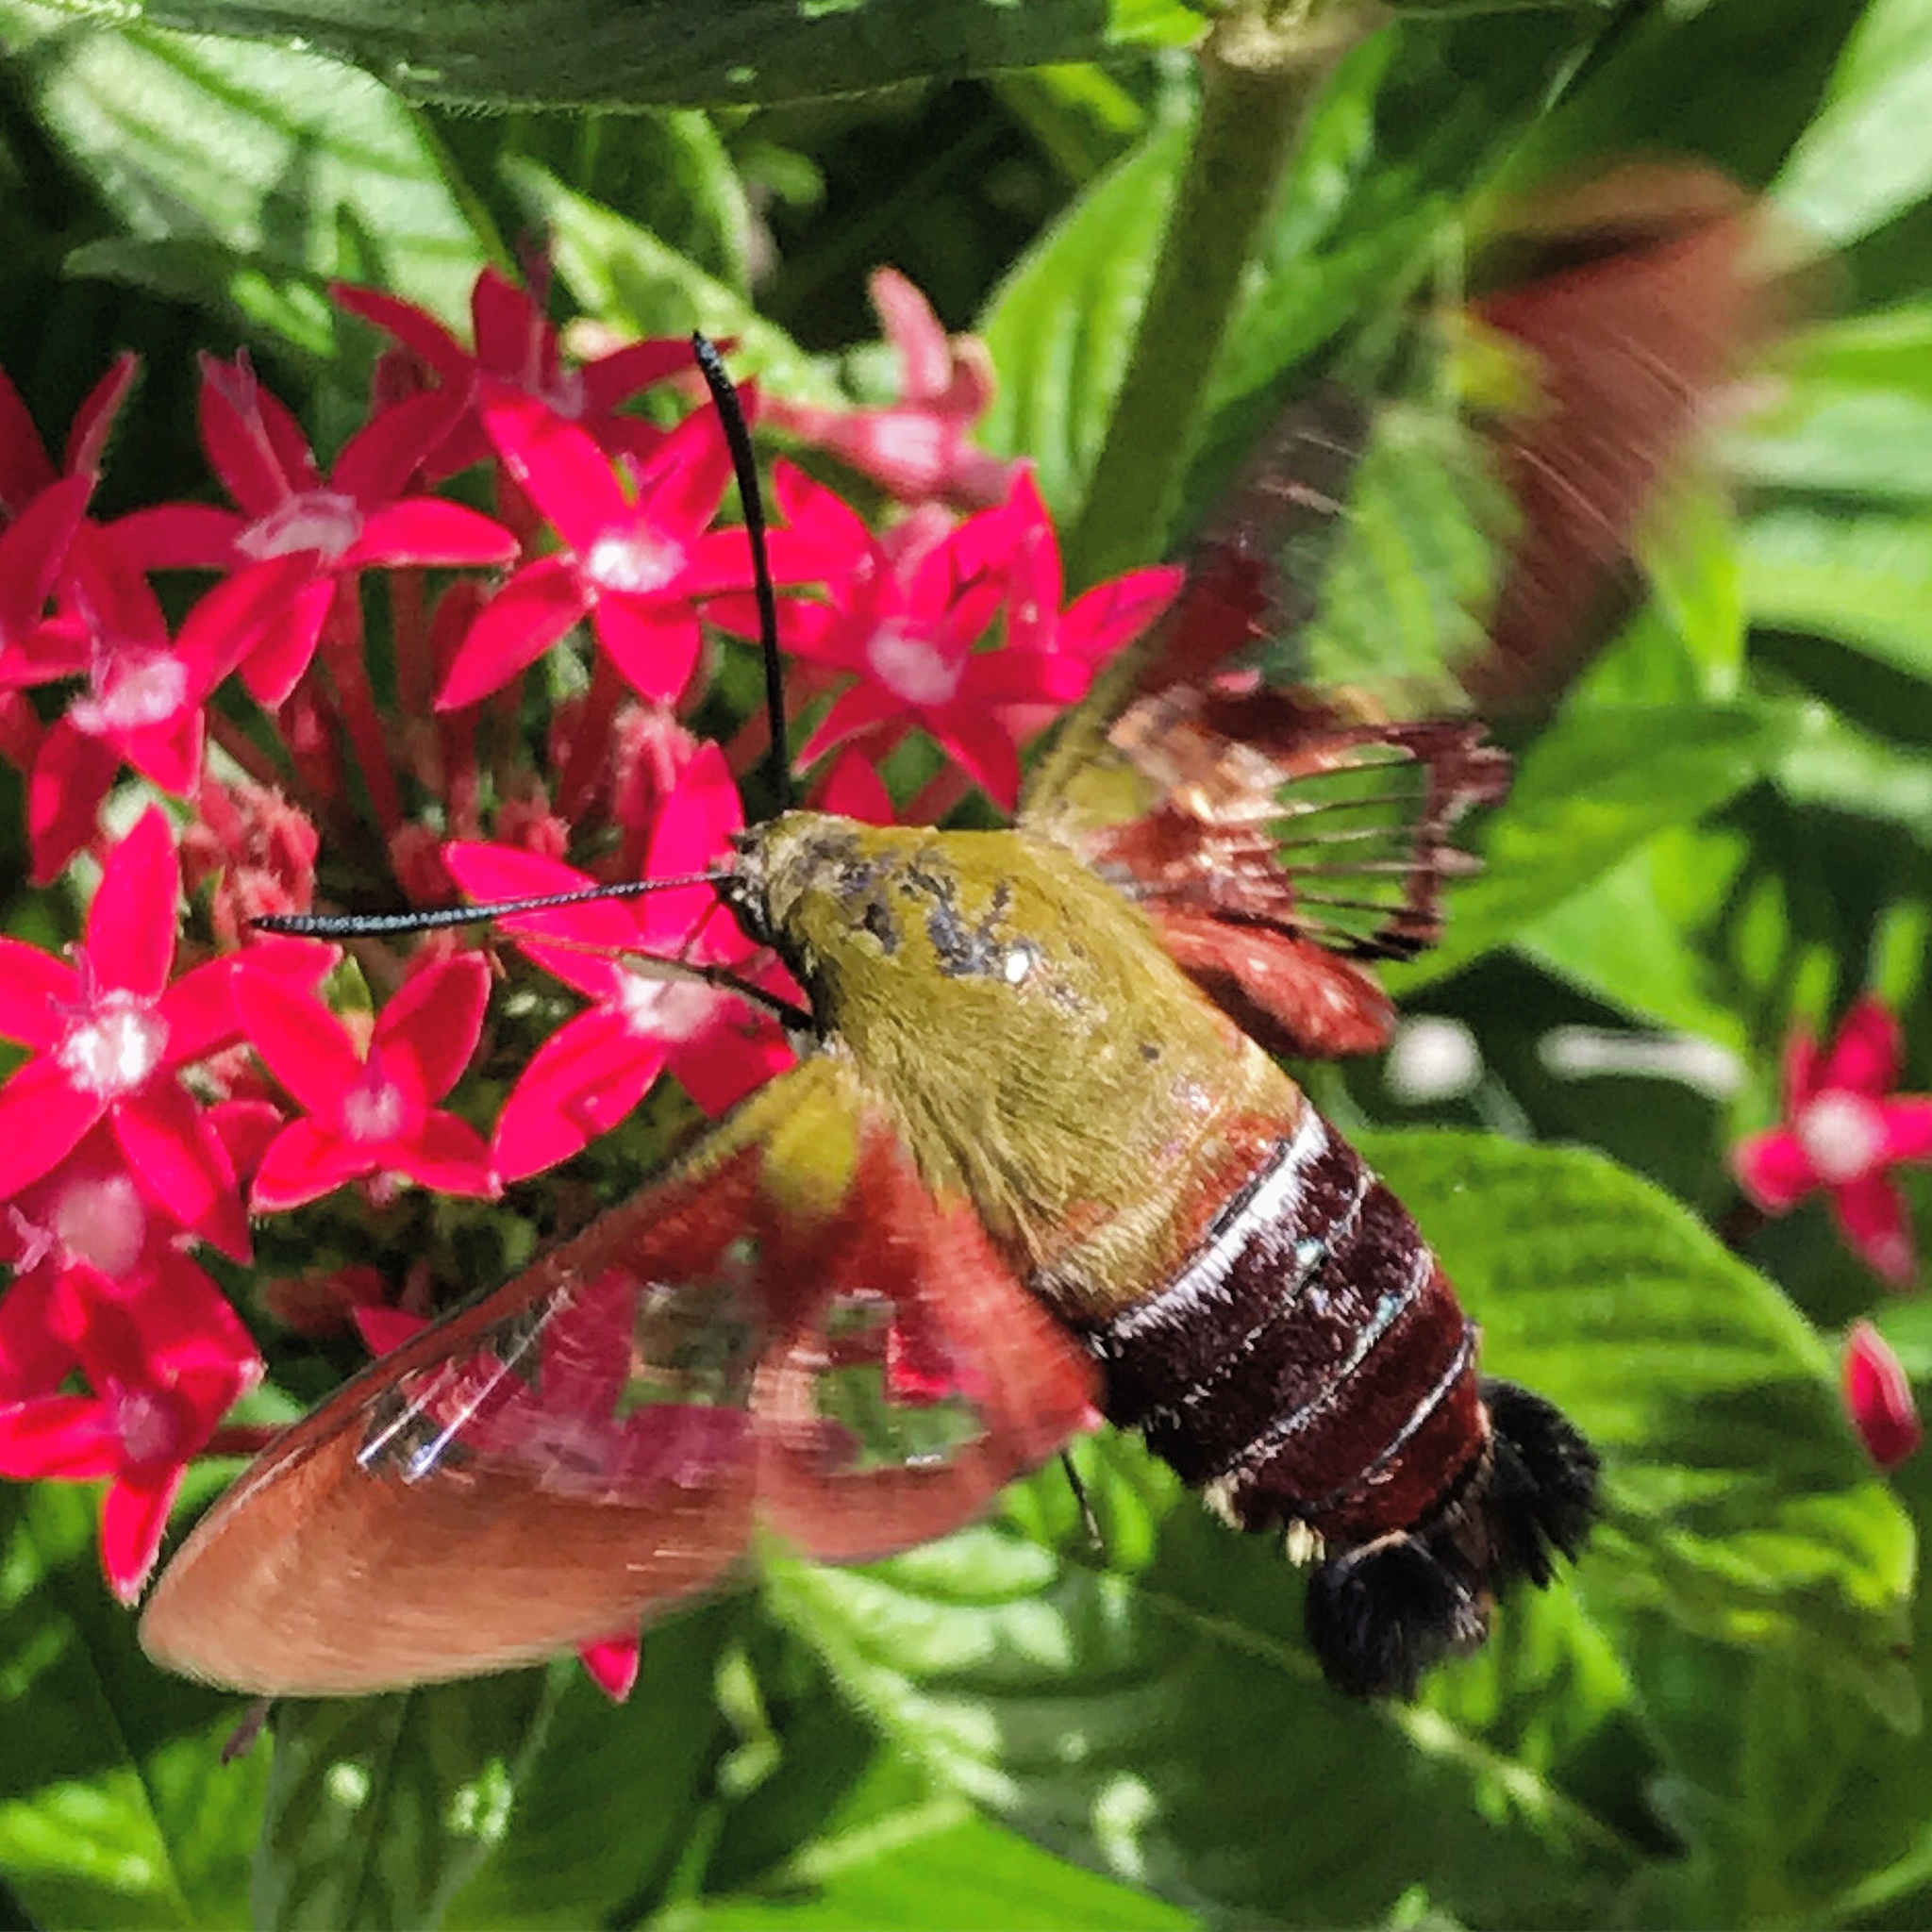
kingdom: Animalia
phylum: Arthropoda
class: Insecta
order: Lepidoptera
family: Sphingidae
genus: Hemaris
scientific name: Hemaris thysbe
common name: Common clear-wing
